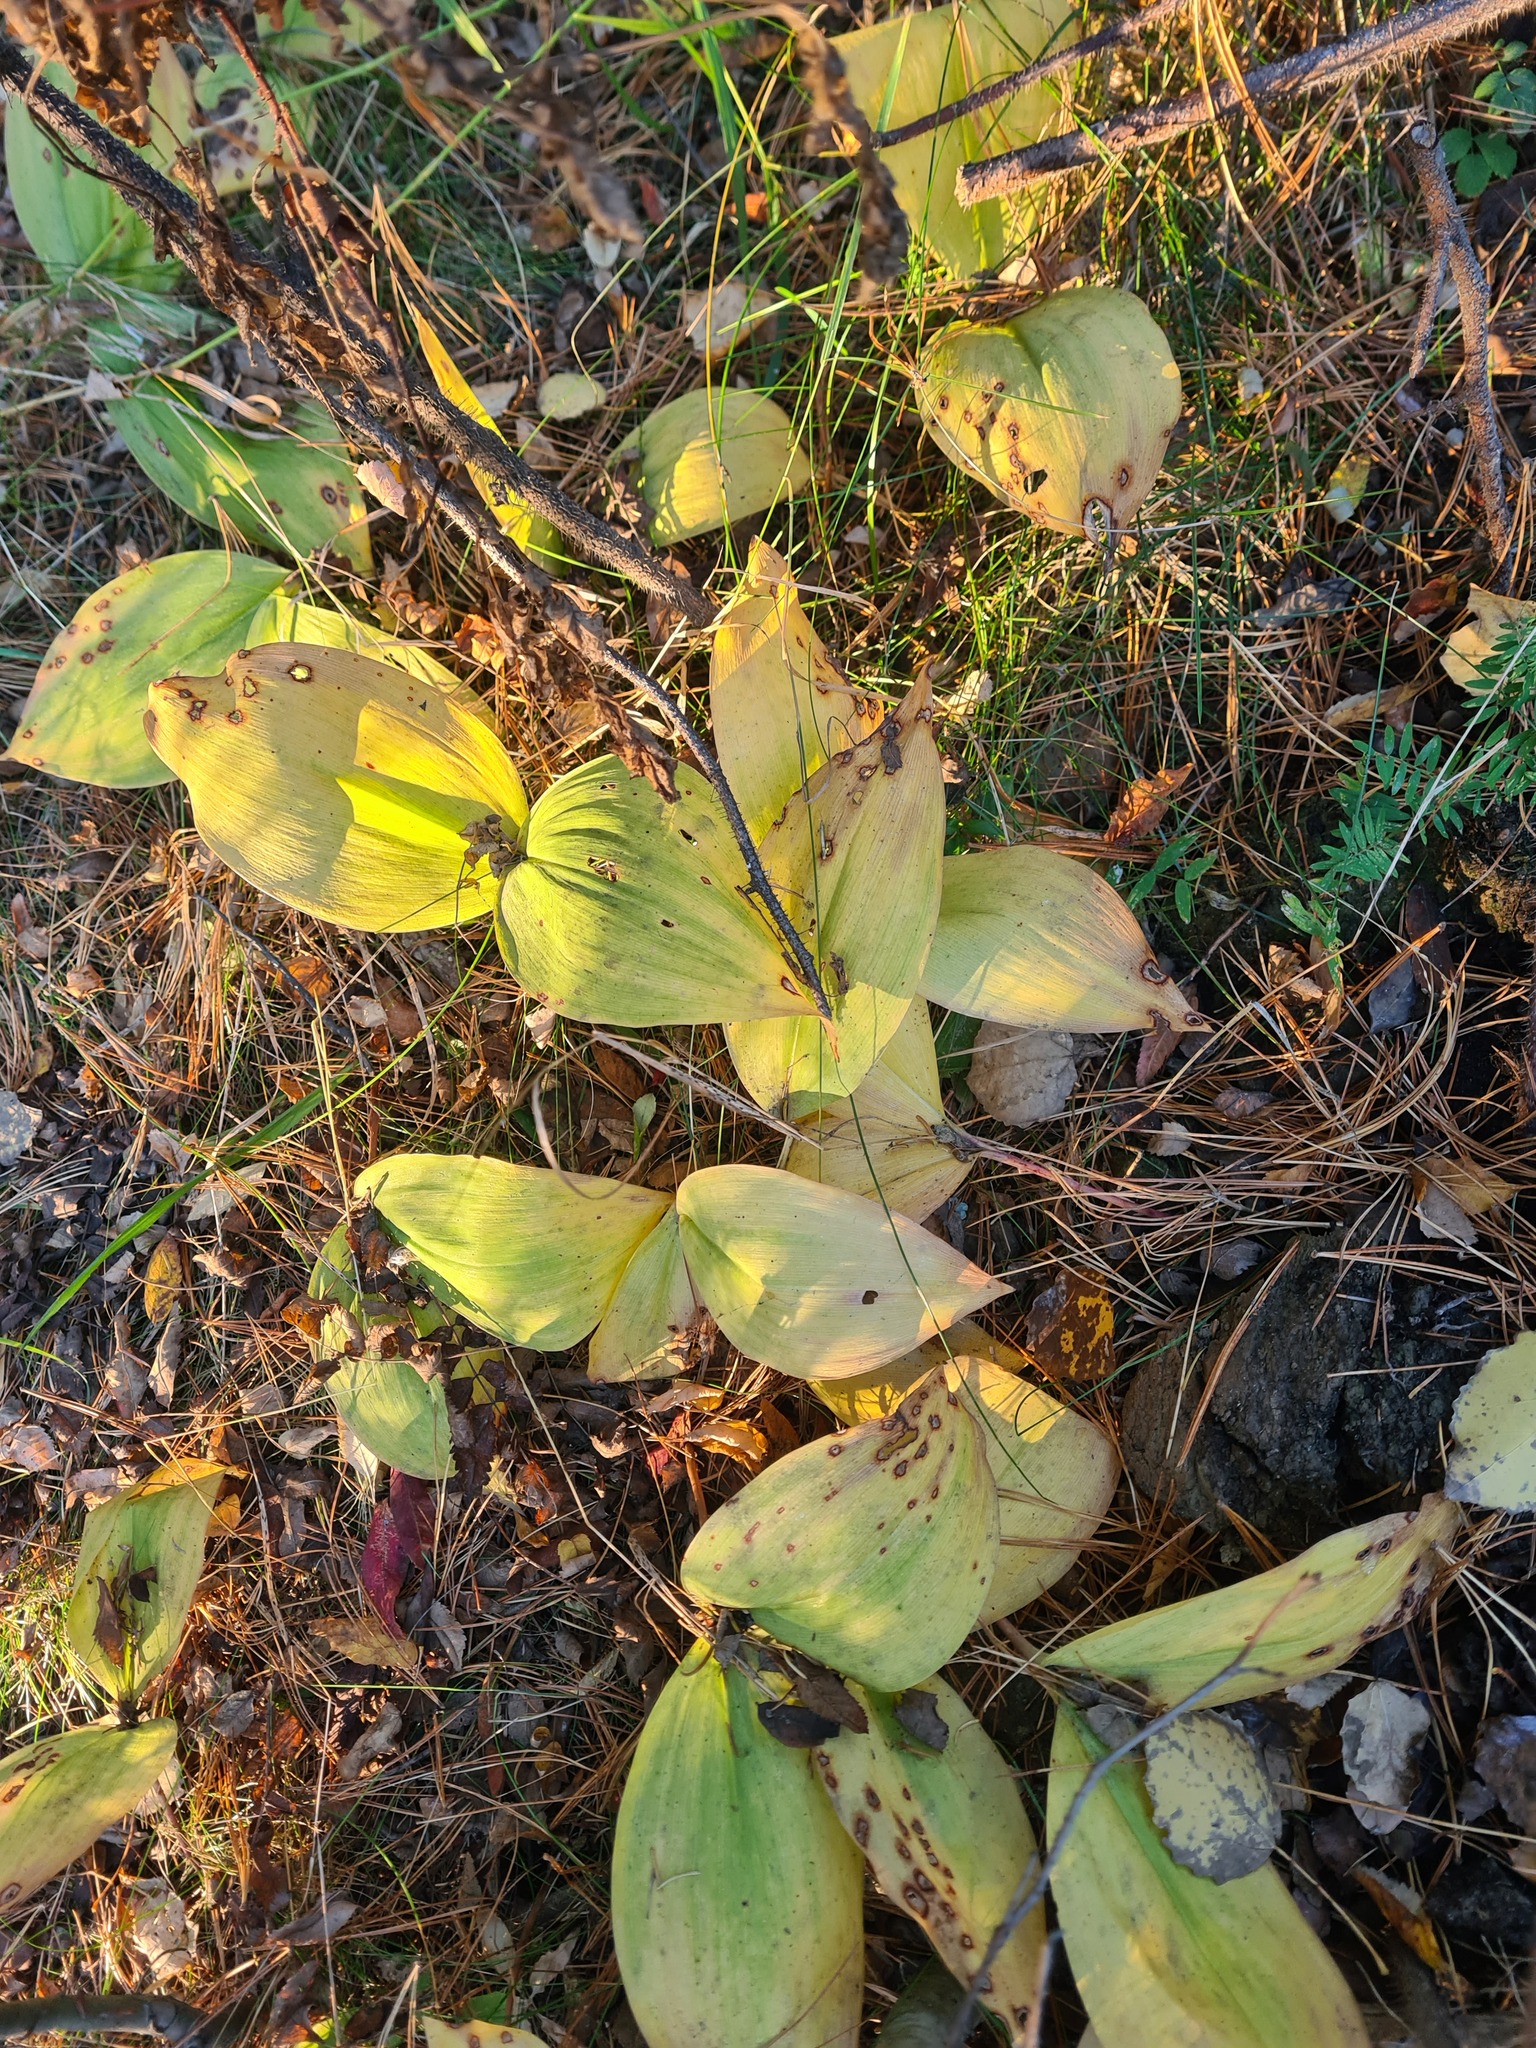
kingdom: Plantae
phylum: Tracheophyta
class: Liliopsida
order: Asparagales
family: Asparagaceae
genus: Convallaria
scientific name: Convallaria majalis
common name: Lily-of-the-valley
